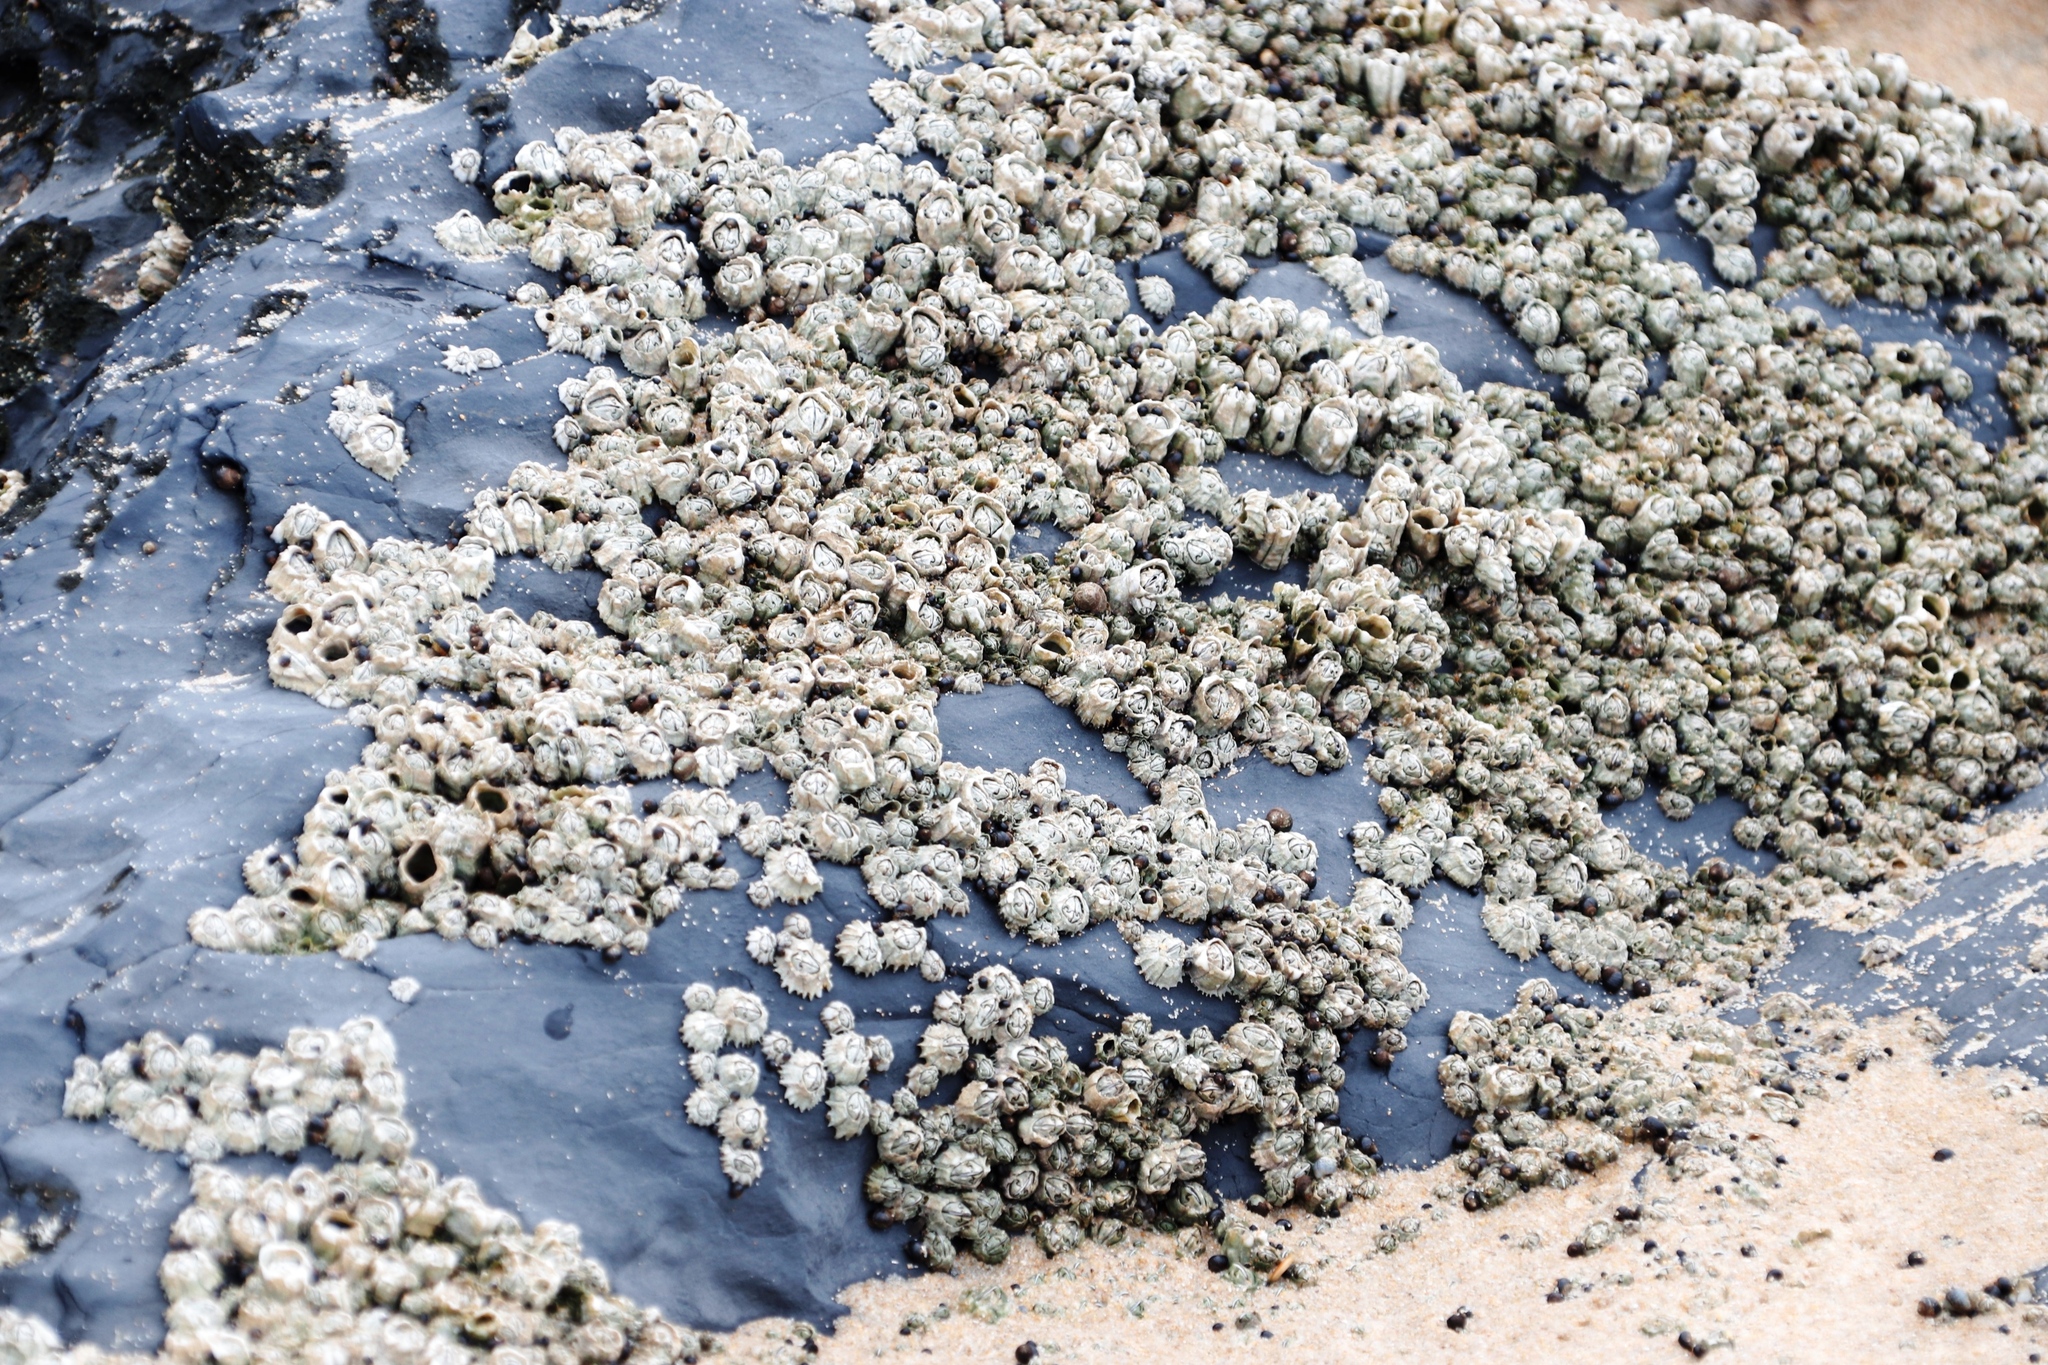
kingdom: Animalia
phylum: Arthropoda
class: Maxillopoda
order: Sessilia
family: Chthamalidae
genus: Chthamalus
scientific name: Chthamalus dentatus
